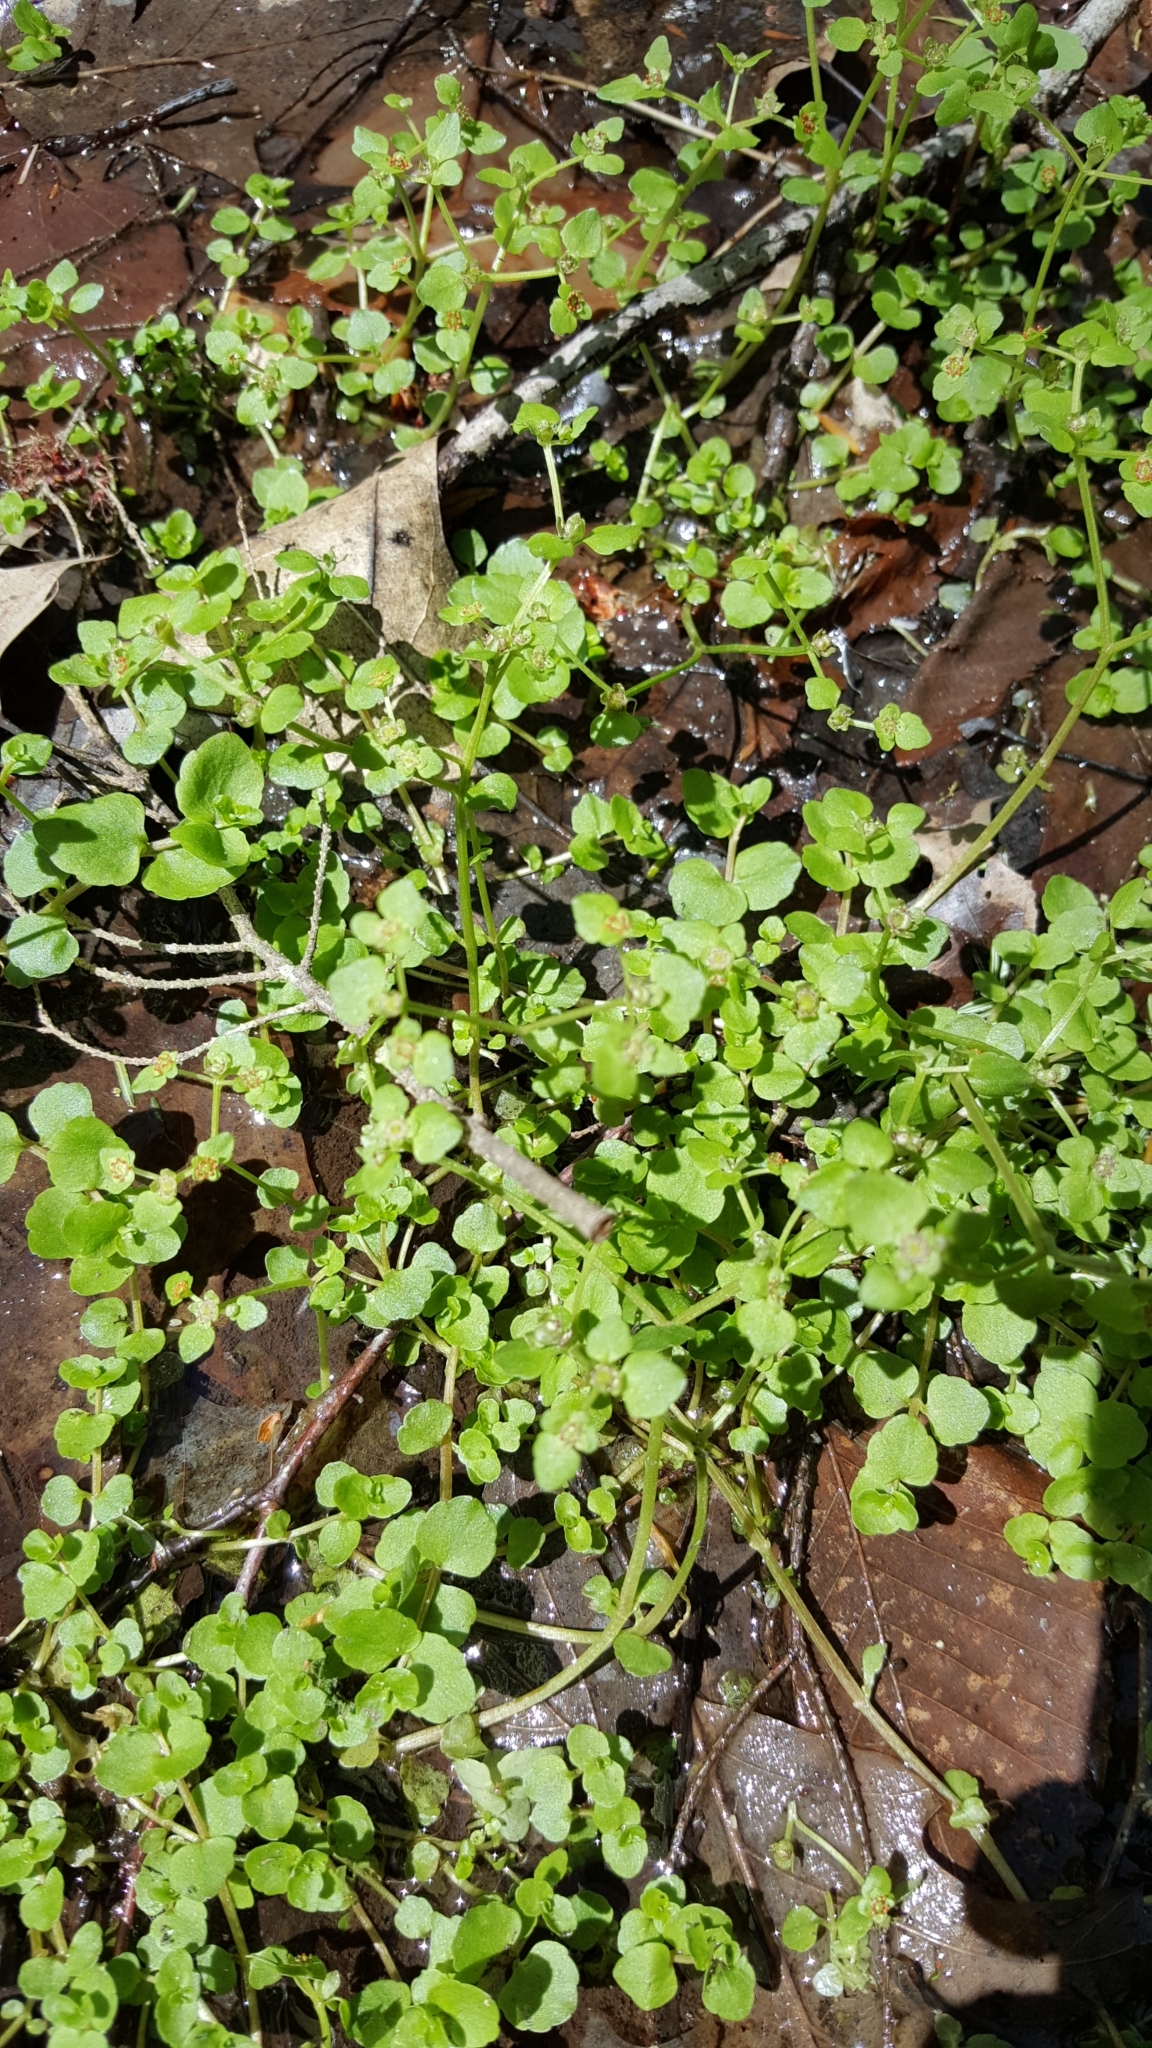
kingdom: Plantae
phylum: Tracheophyta
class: Magnoliopsida
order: Saxifragales
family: Saxifragaceae
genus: Chrysosplenium
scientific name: Chrysosplenium americanum
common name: American golden-saxifrage
